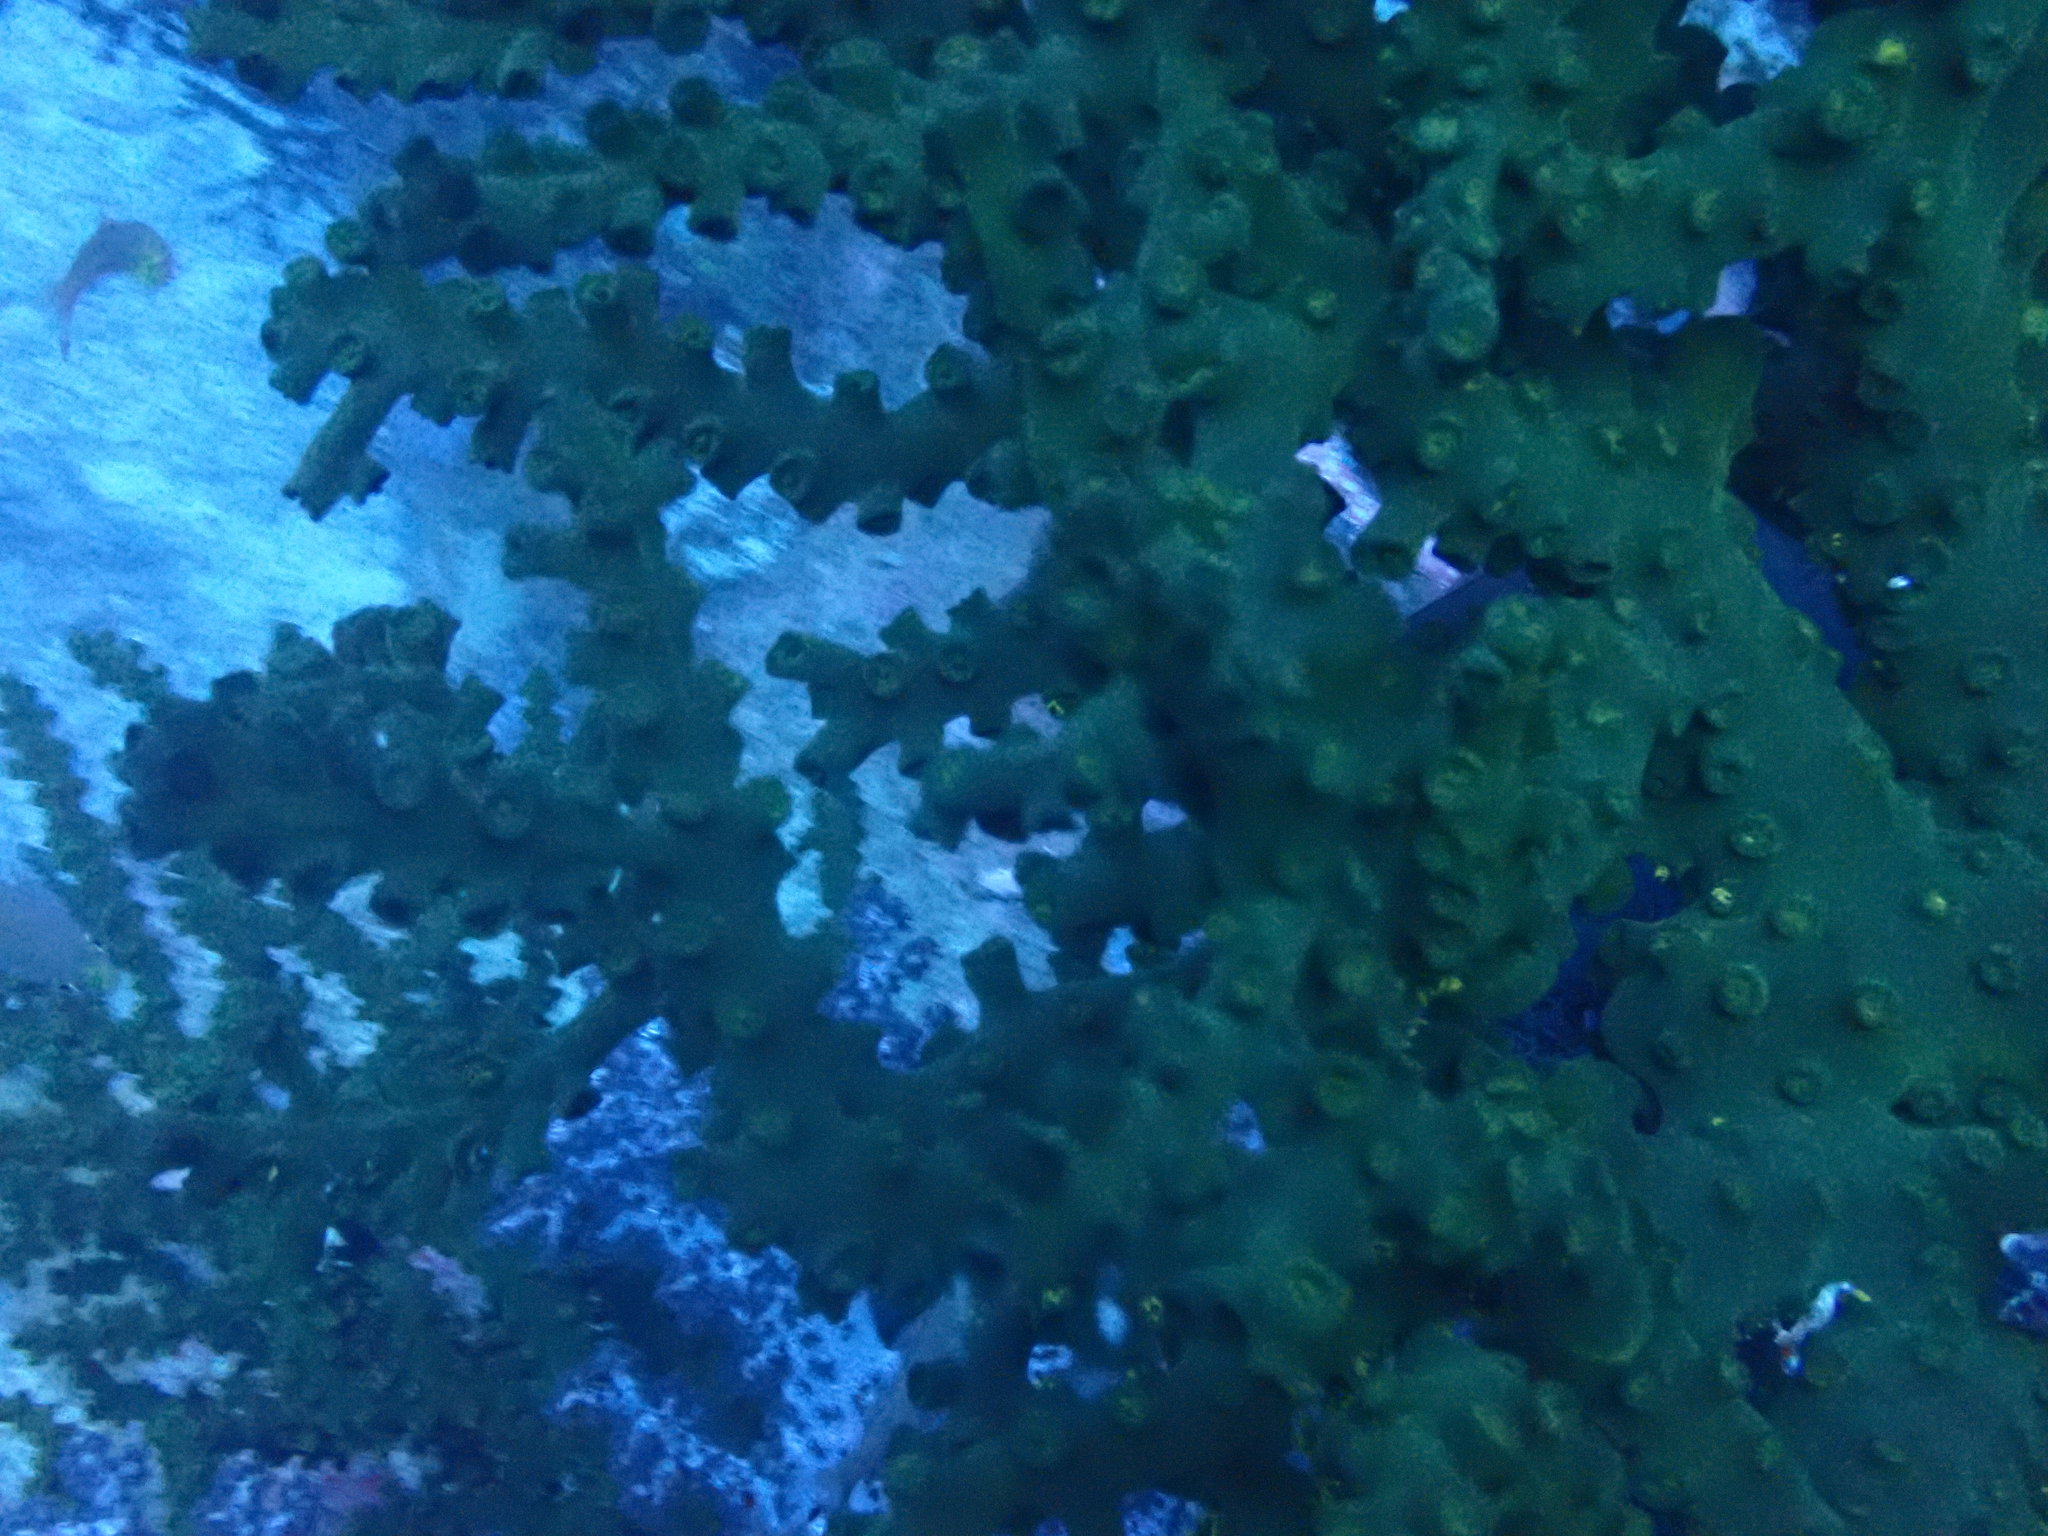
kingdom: Animalia
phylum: Cnidaria
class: Anthozoa
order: Scleractinia
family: Dendrophylliidae
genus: Tubastraea
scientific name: Tubastraea micranthus
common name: Black sun coral
